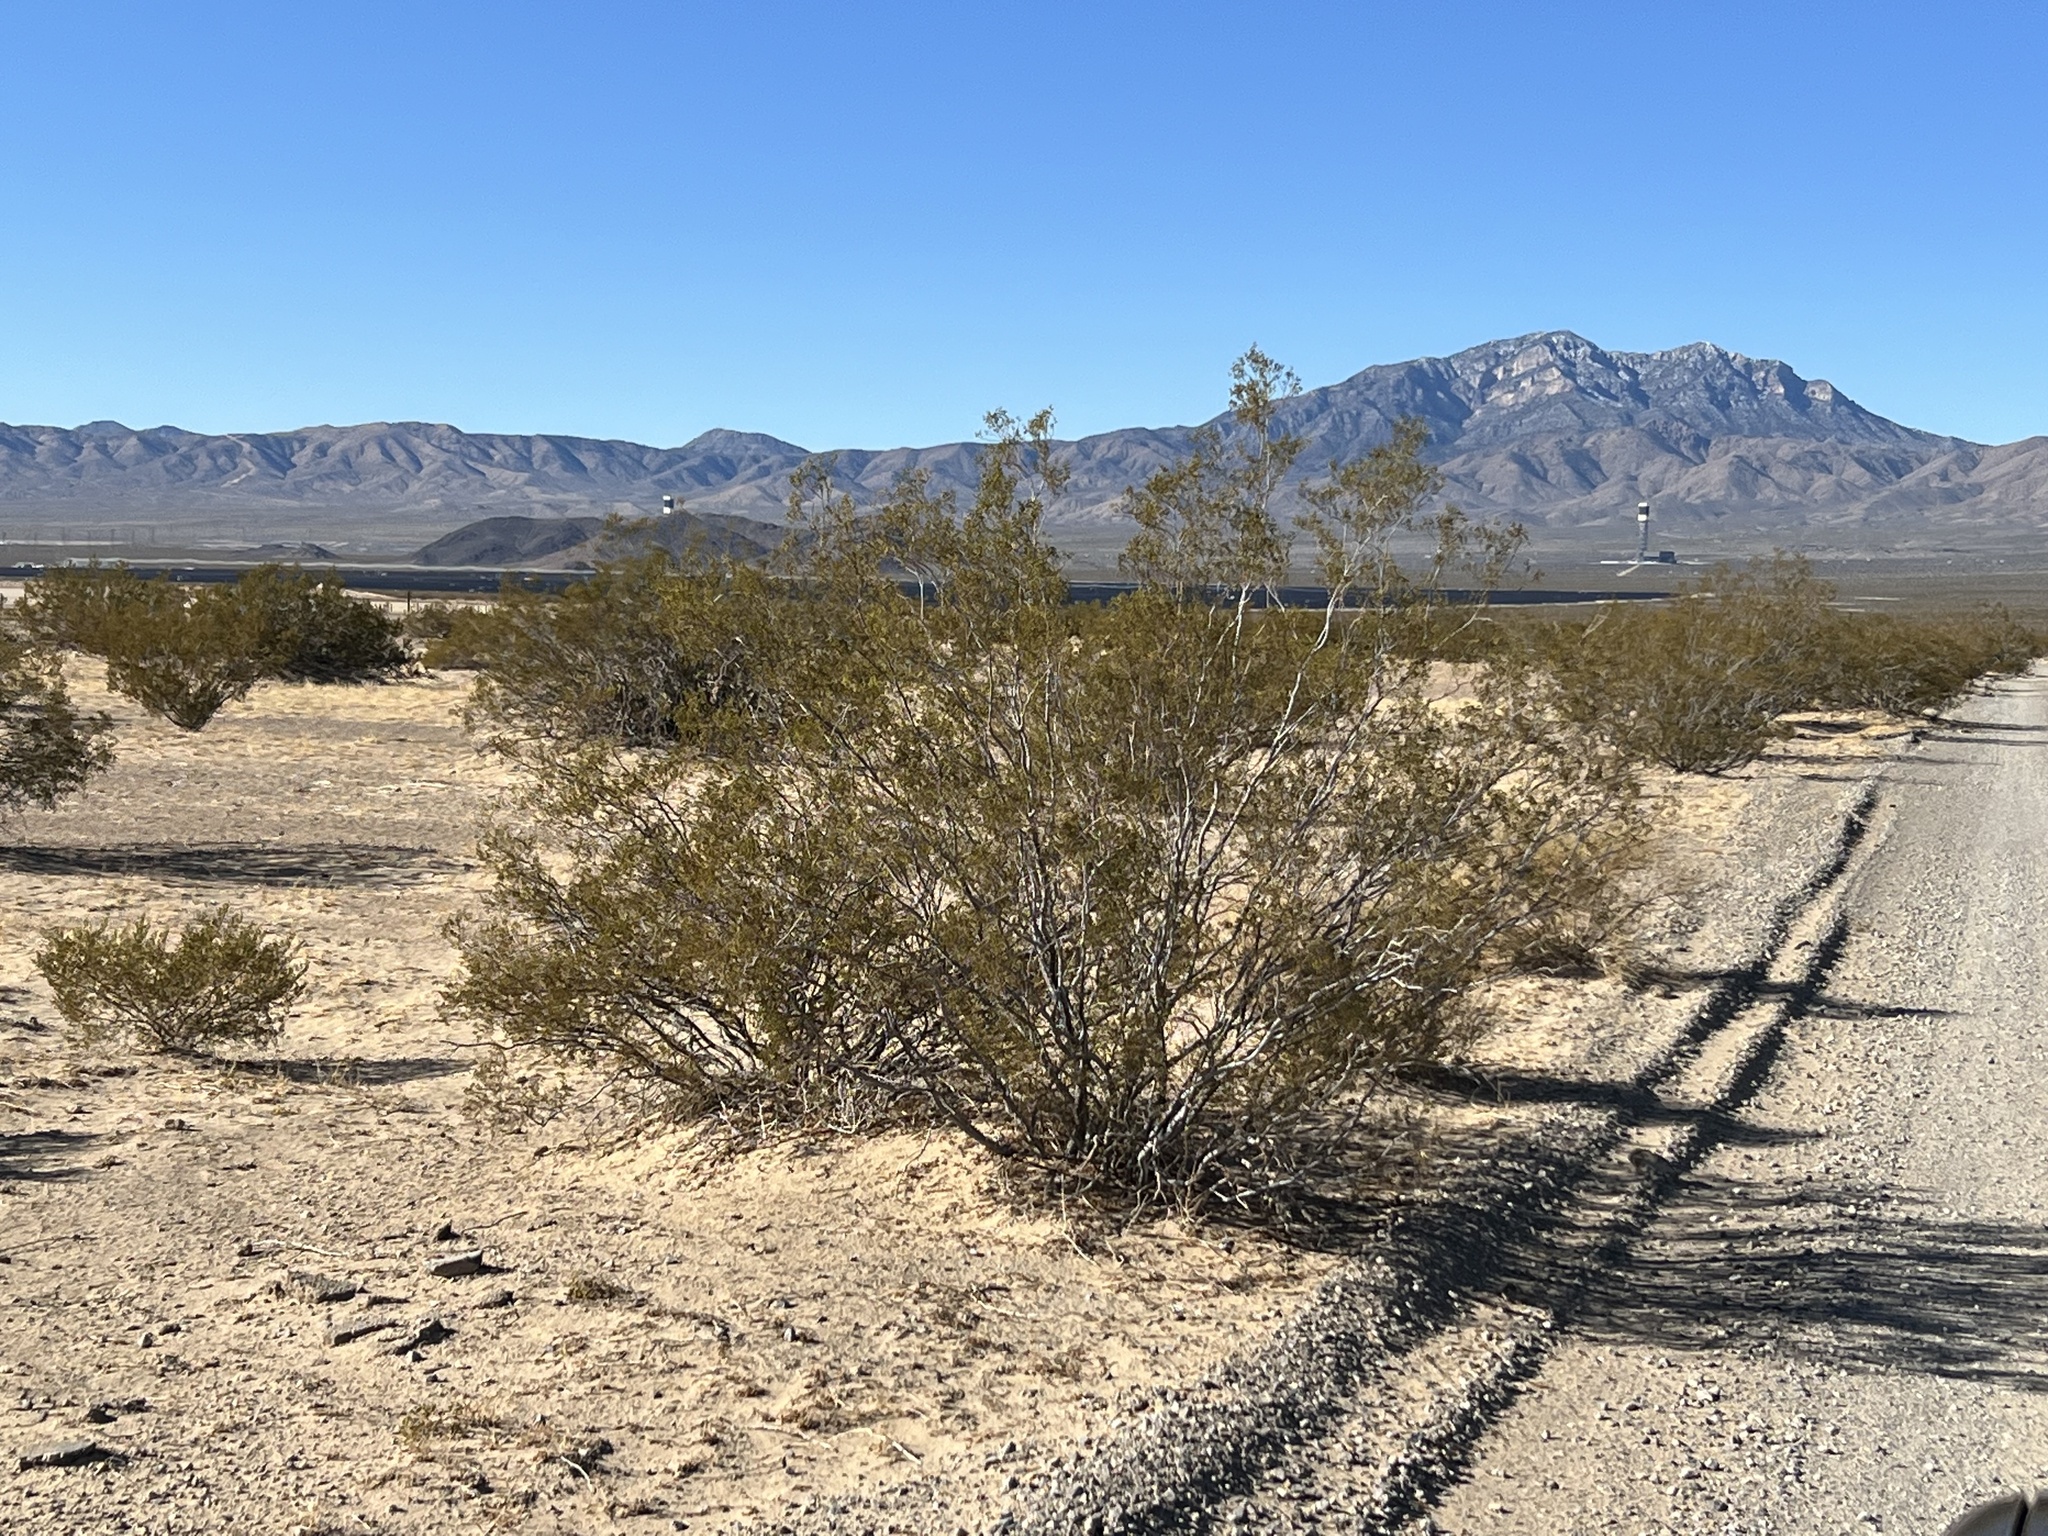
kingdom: Plantae
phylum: Tracheophyta
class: Magnoliopsida
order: Zygophyllales
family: Zygophyllaceae
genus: Larrea
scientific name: Larrea tridentata
